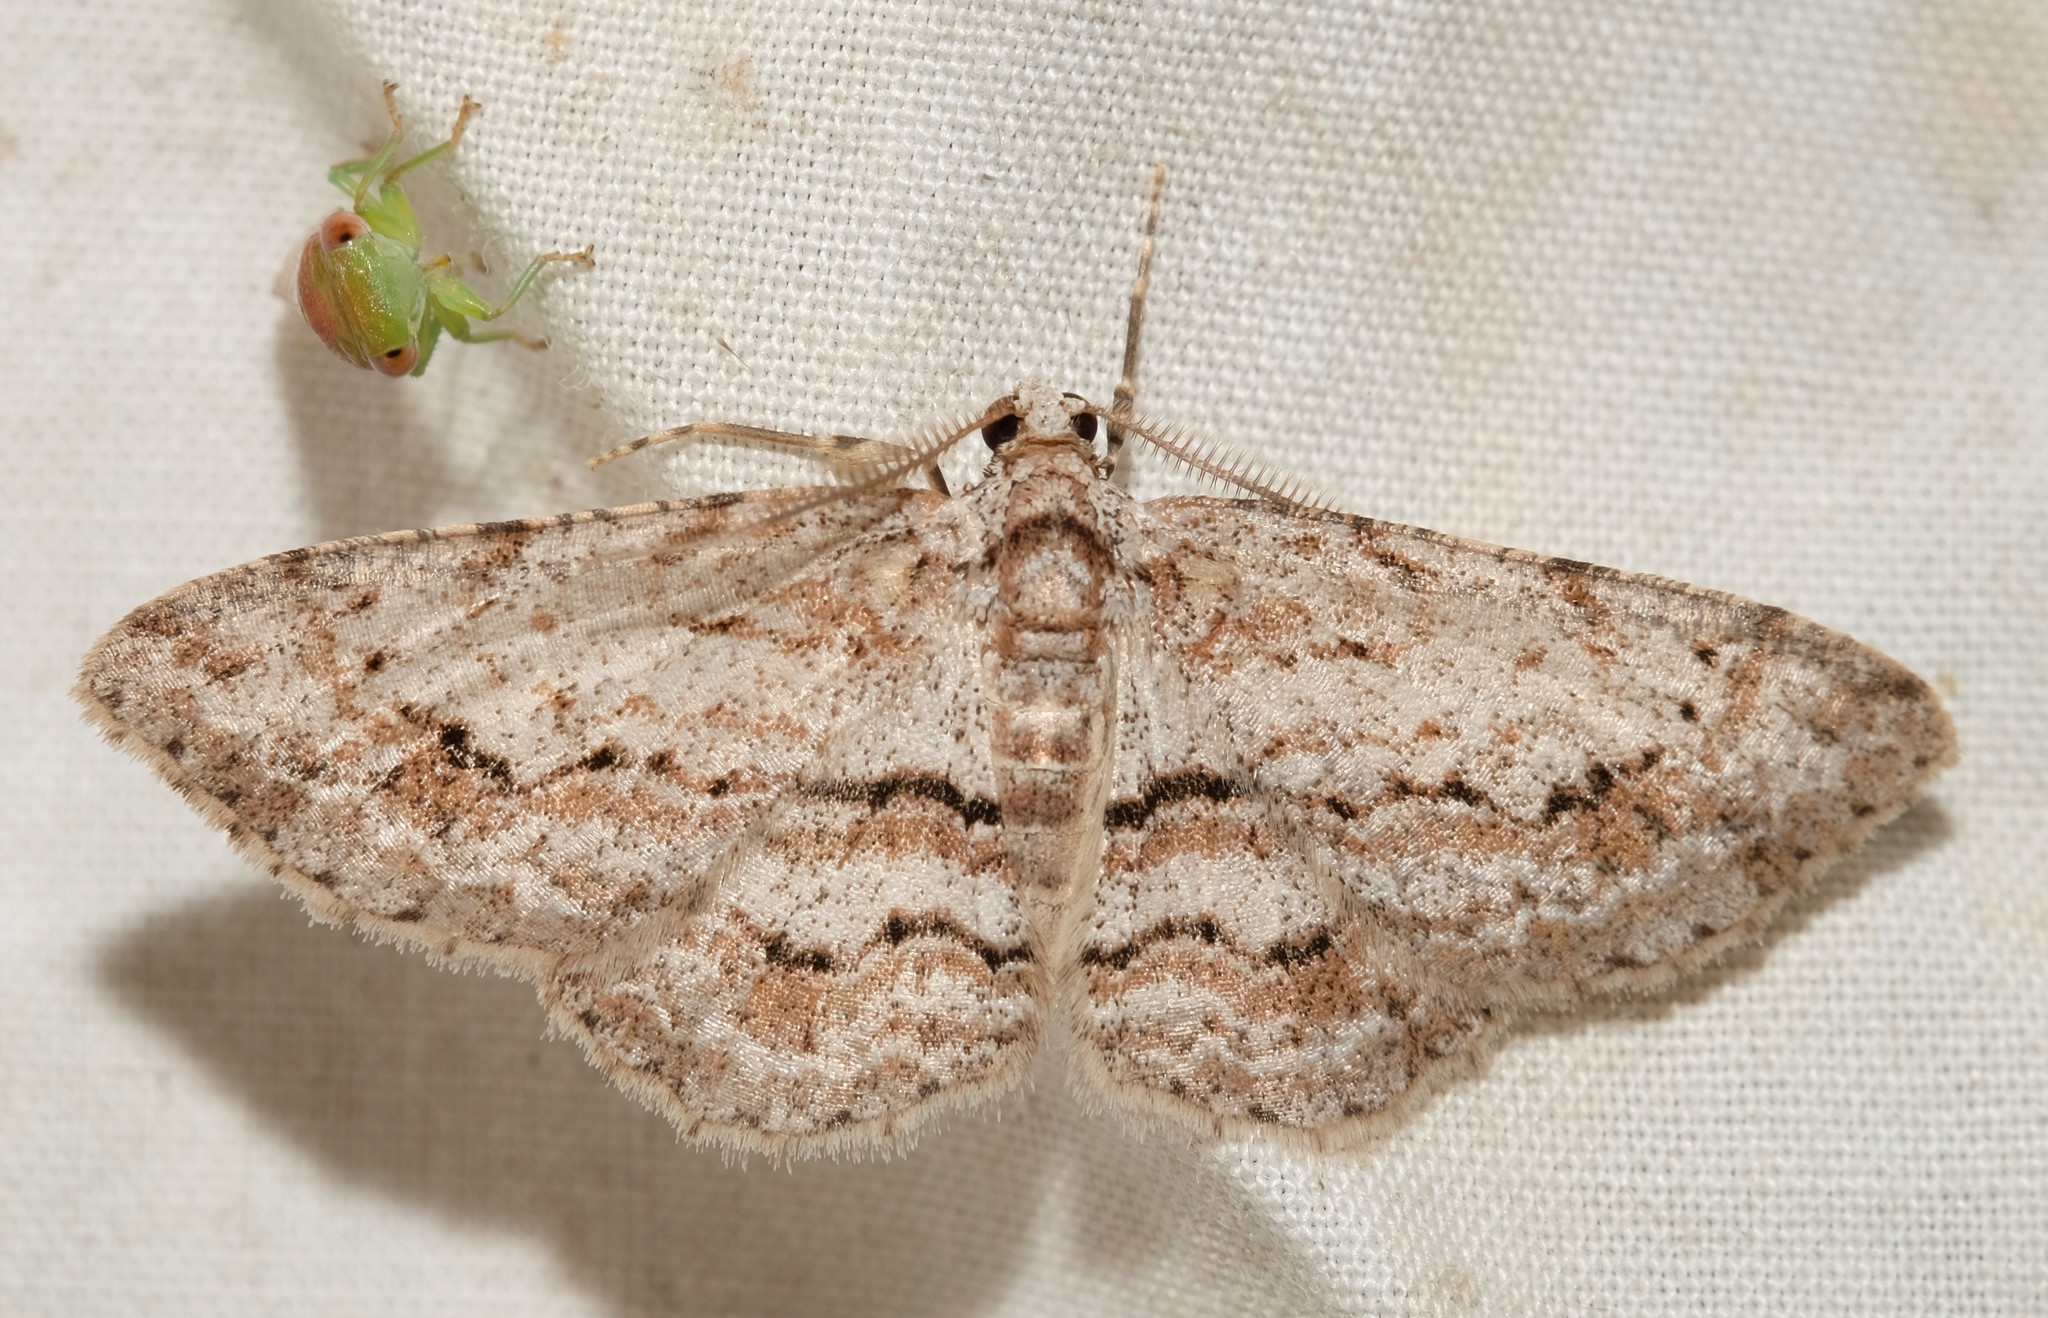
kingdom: Animalia
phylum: Arthropoda
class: Insecta
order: Lepidoptera
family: Geometridae
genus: Didymoctenia
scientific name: Didymoctenia exsuperata
